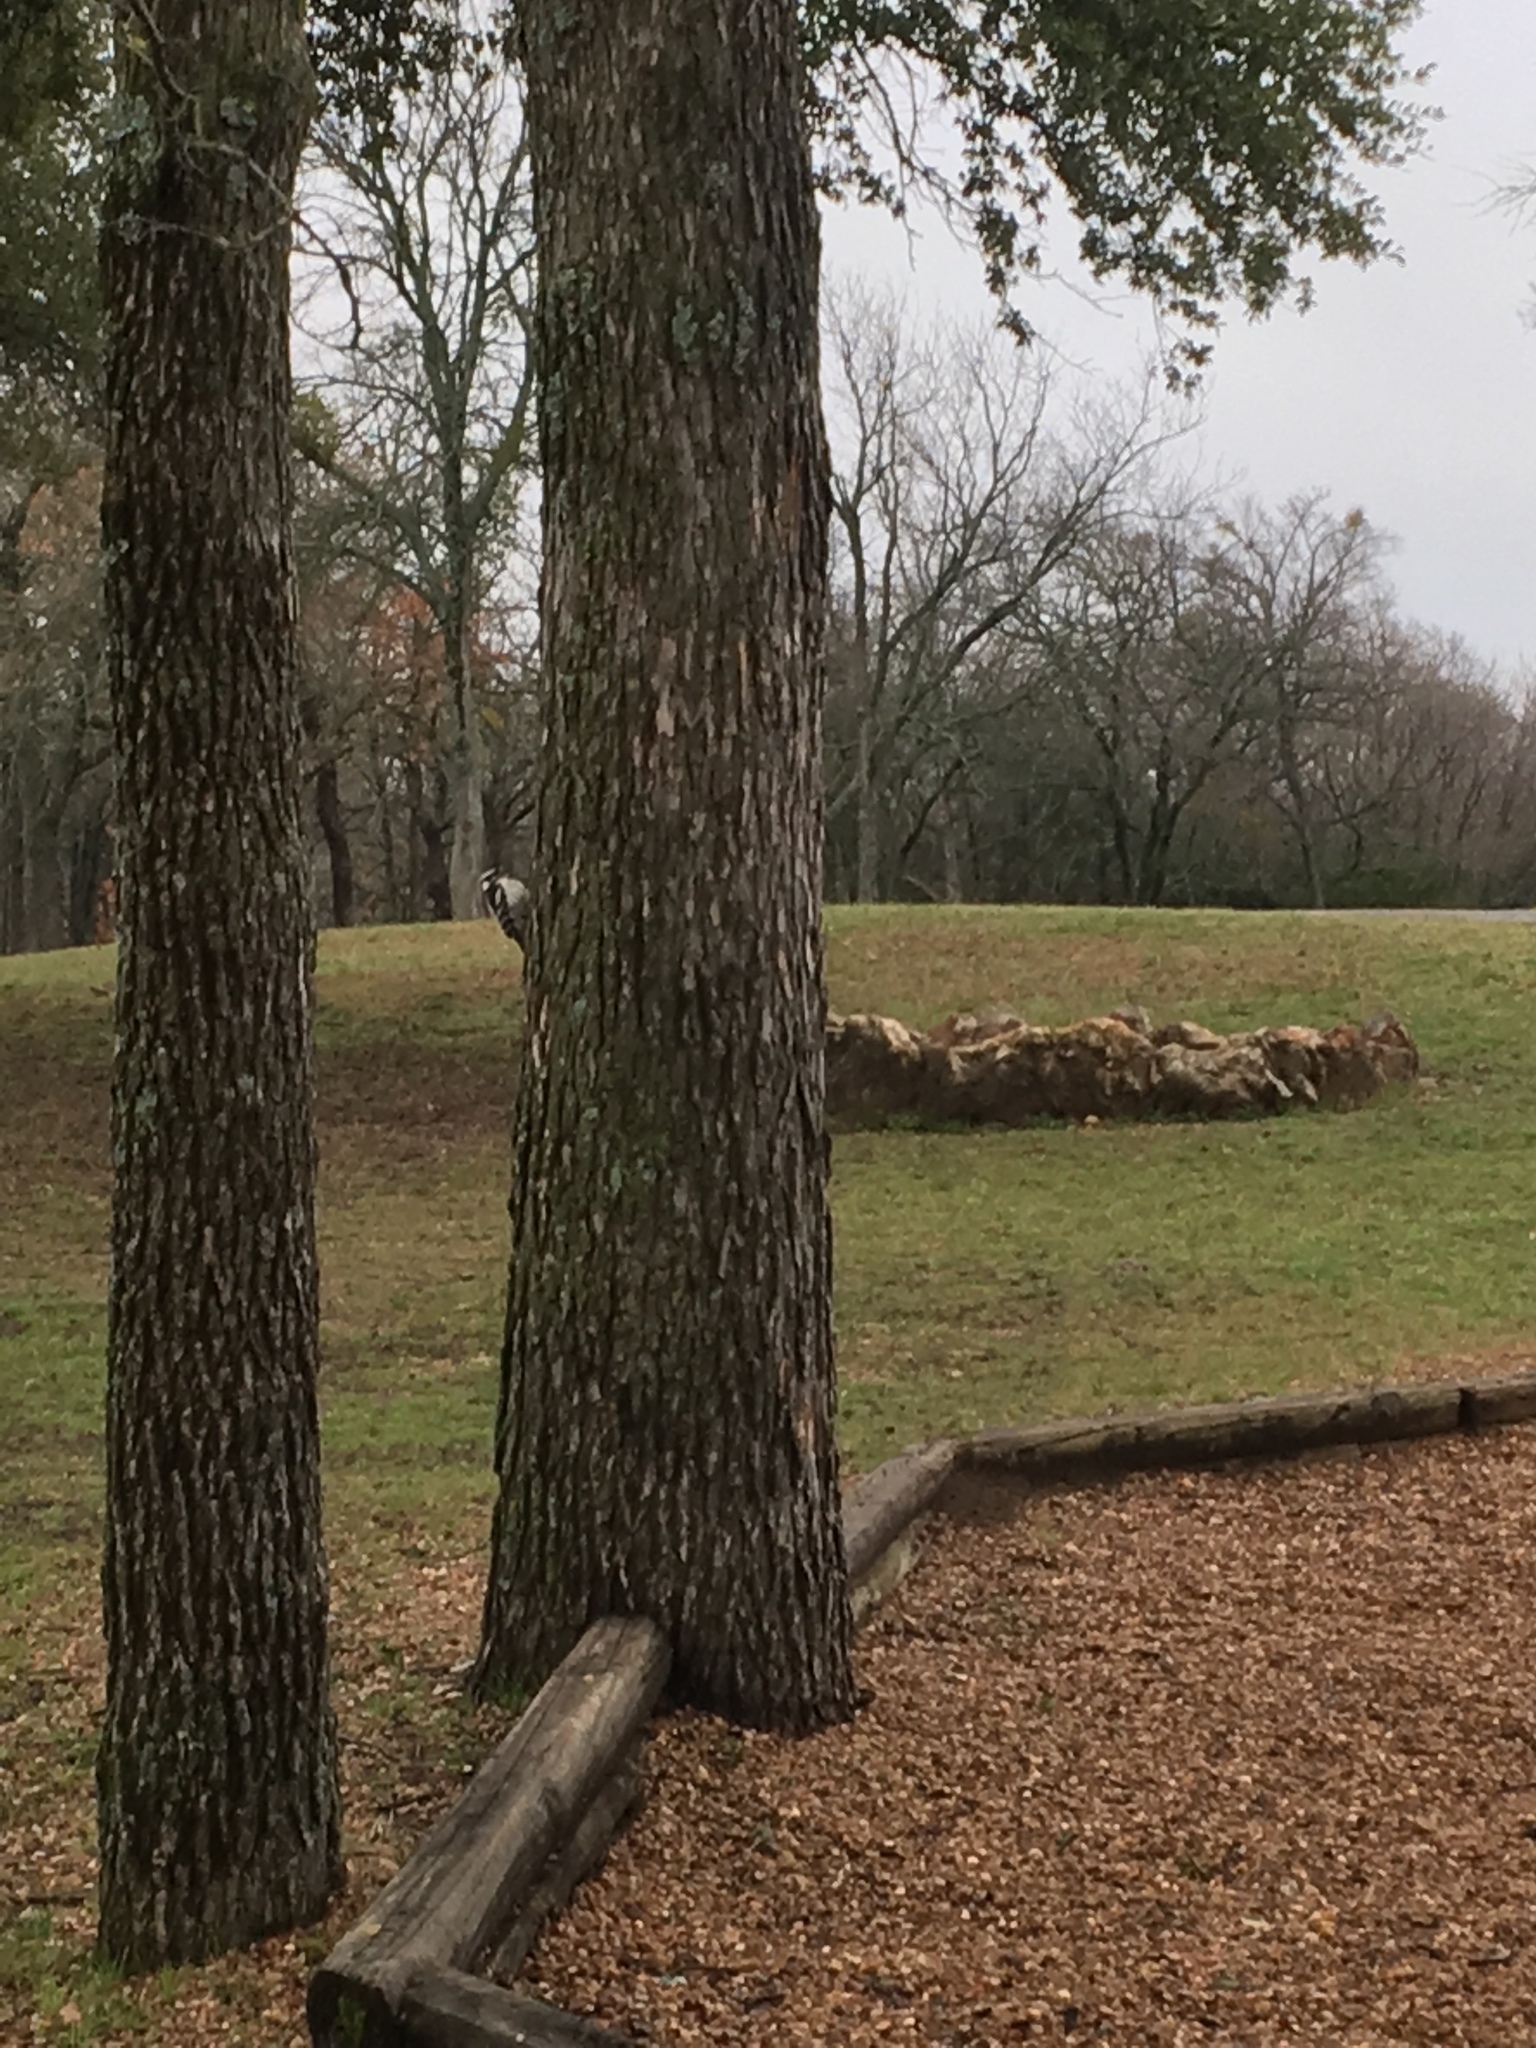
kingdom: Animalia
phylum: Chordata
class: Aves
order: Piciformes
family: Picidae
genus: Dryobates
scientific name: Dryobates pubescens
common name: Downy woodpecker
